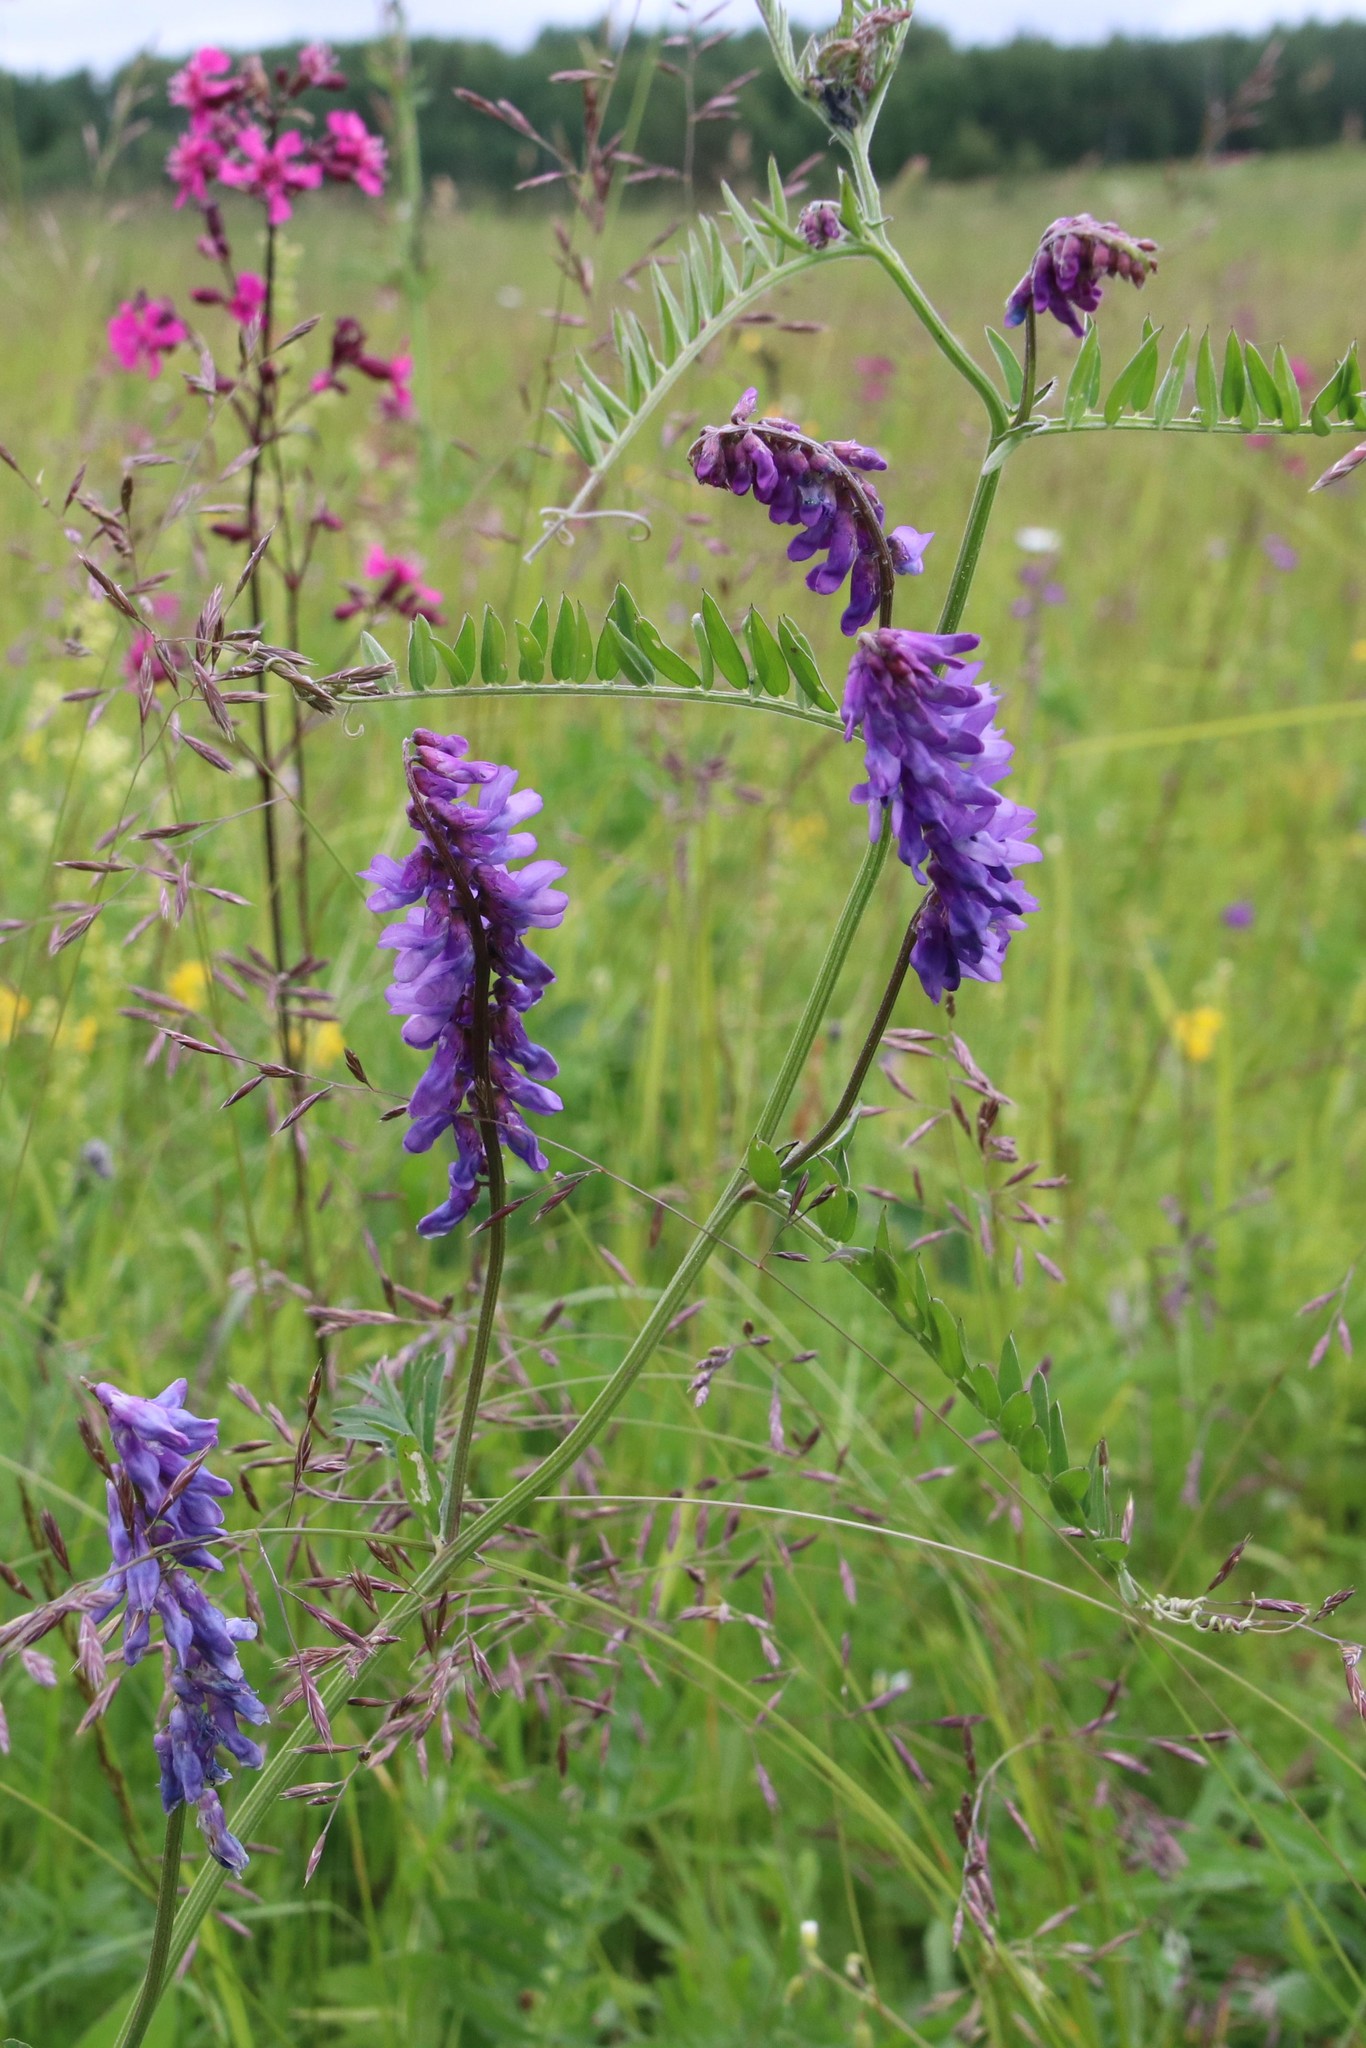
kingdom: Plantae
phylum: Tracheophyta
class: Magnoliopsida
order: Fabales
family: Fabaceae
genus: Vicia
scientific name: Vicia cracca
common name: Bird vetch
